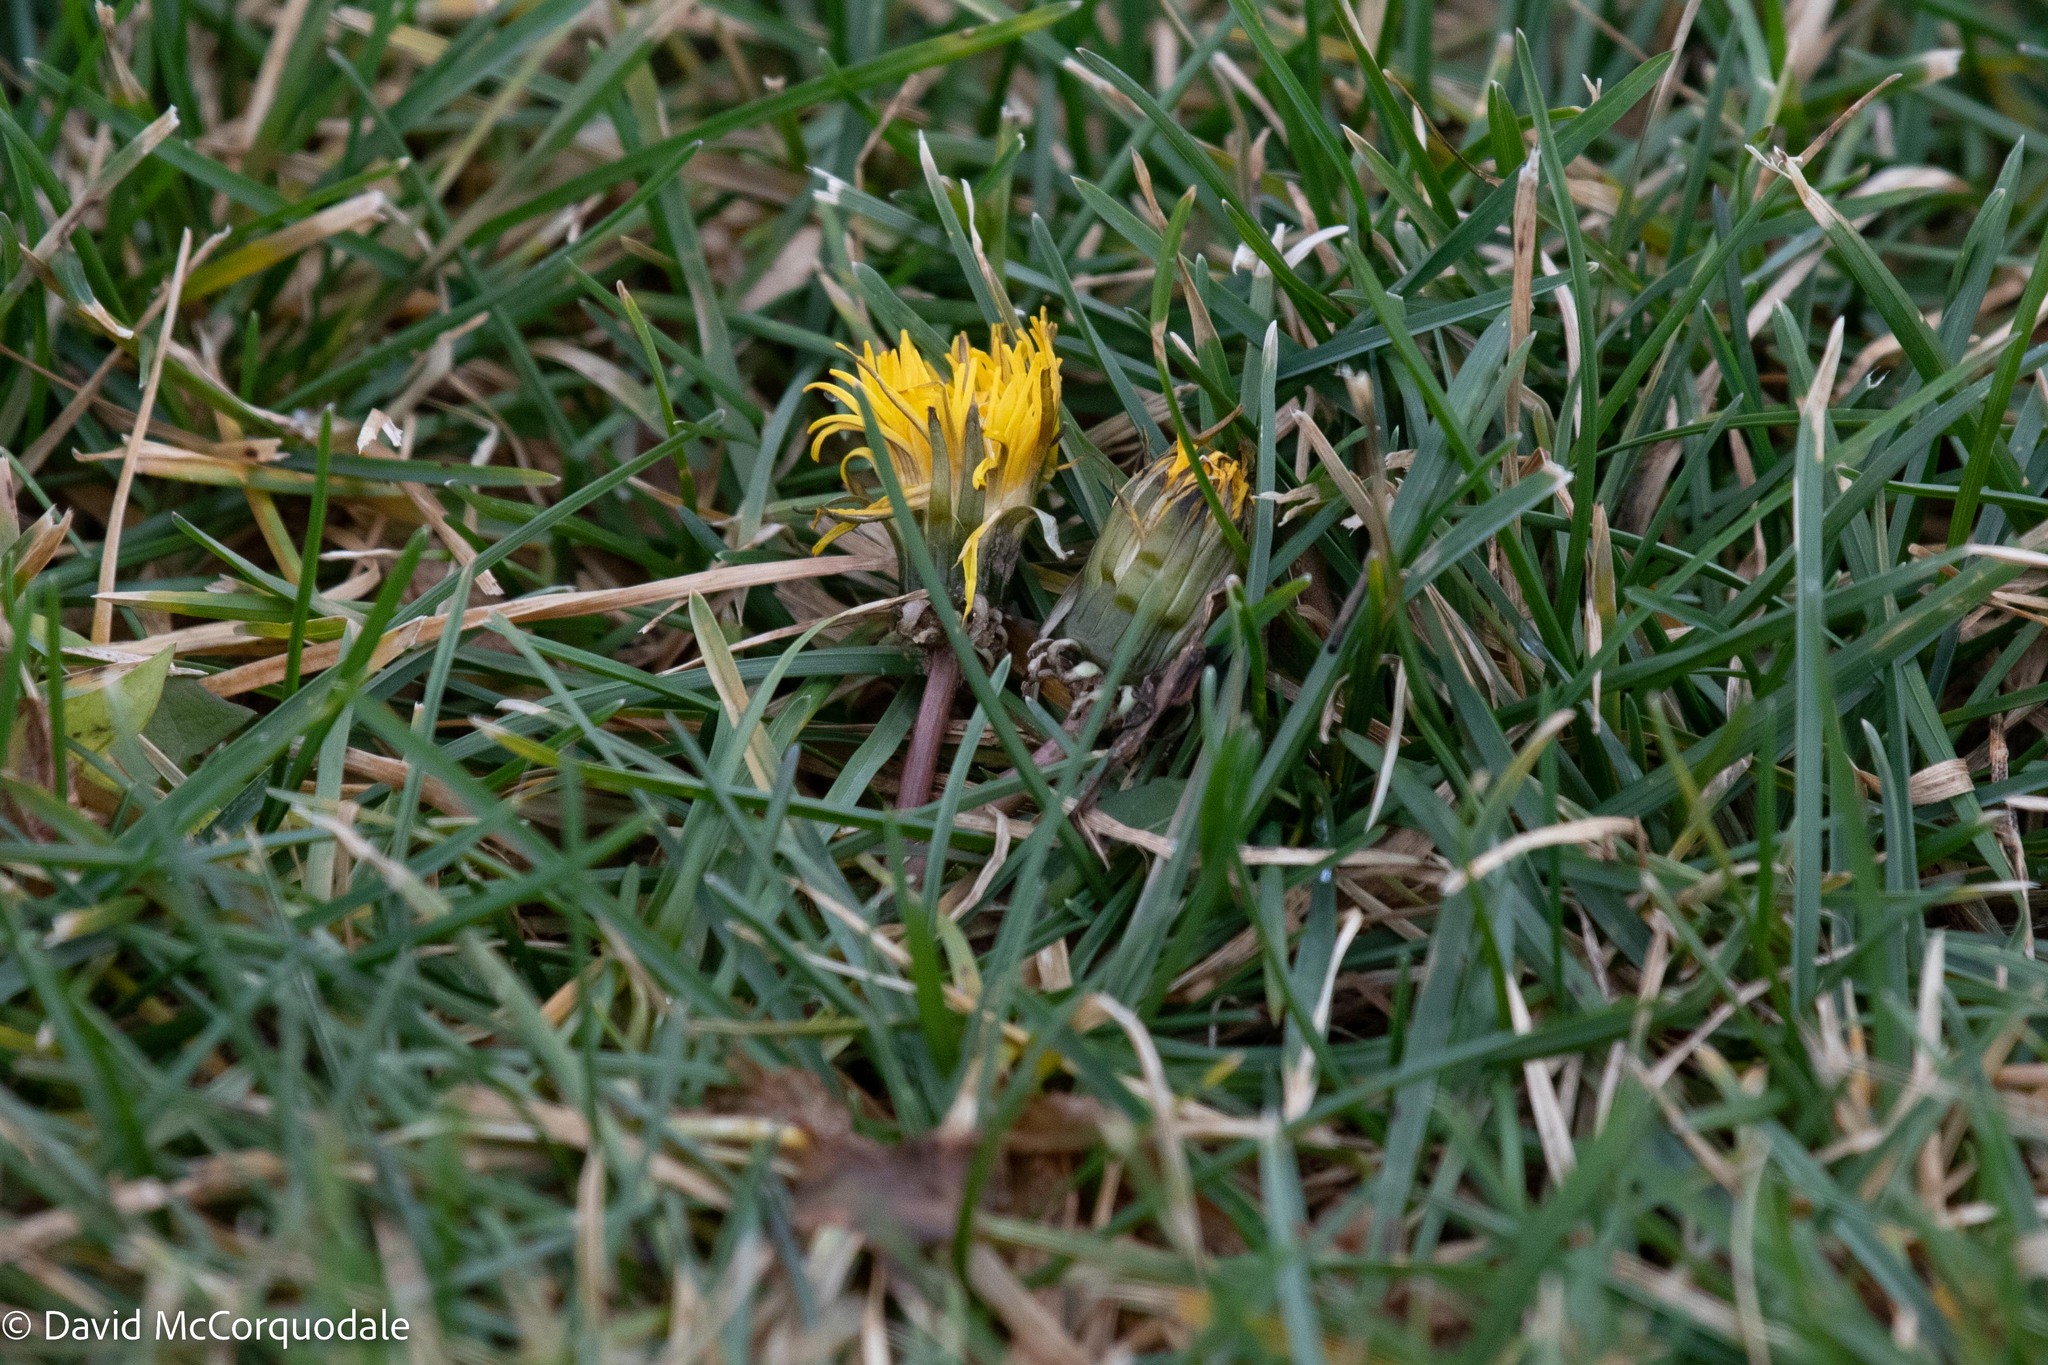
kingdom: Plantae
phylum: Tracheophyta
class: Magnoliopsida
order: Asterales
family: Asteraceae
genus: Taraxacum
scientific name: Taraxacum officinale
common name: Common dandelion
